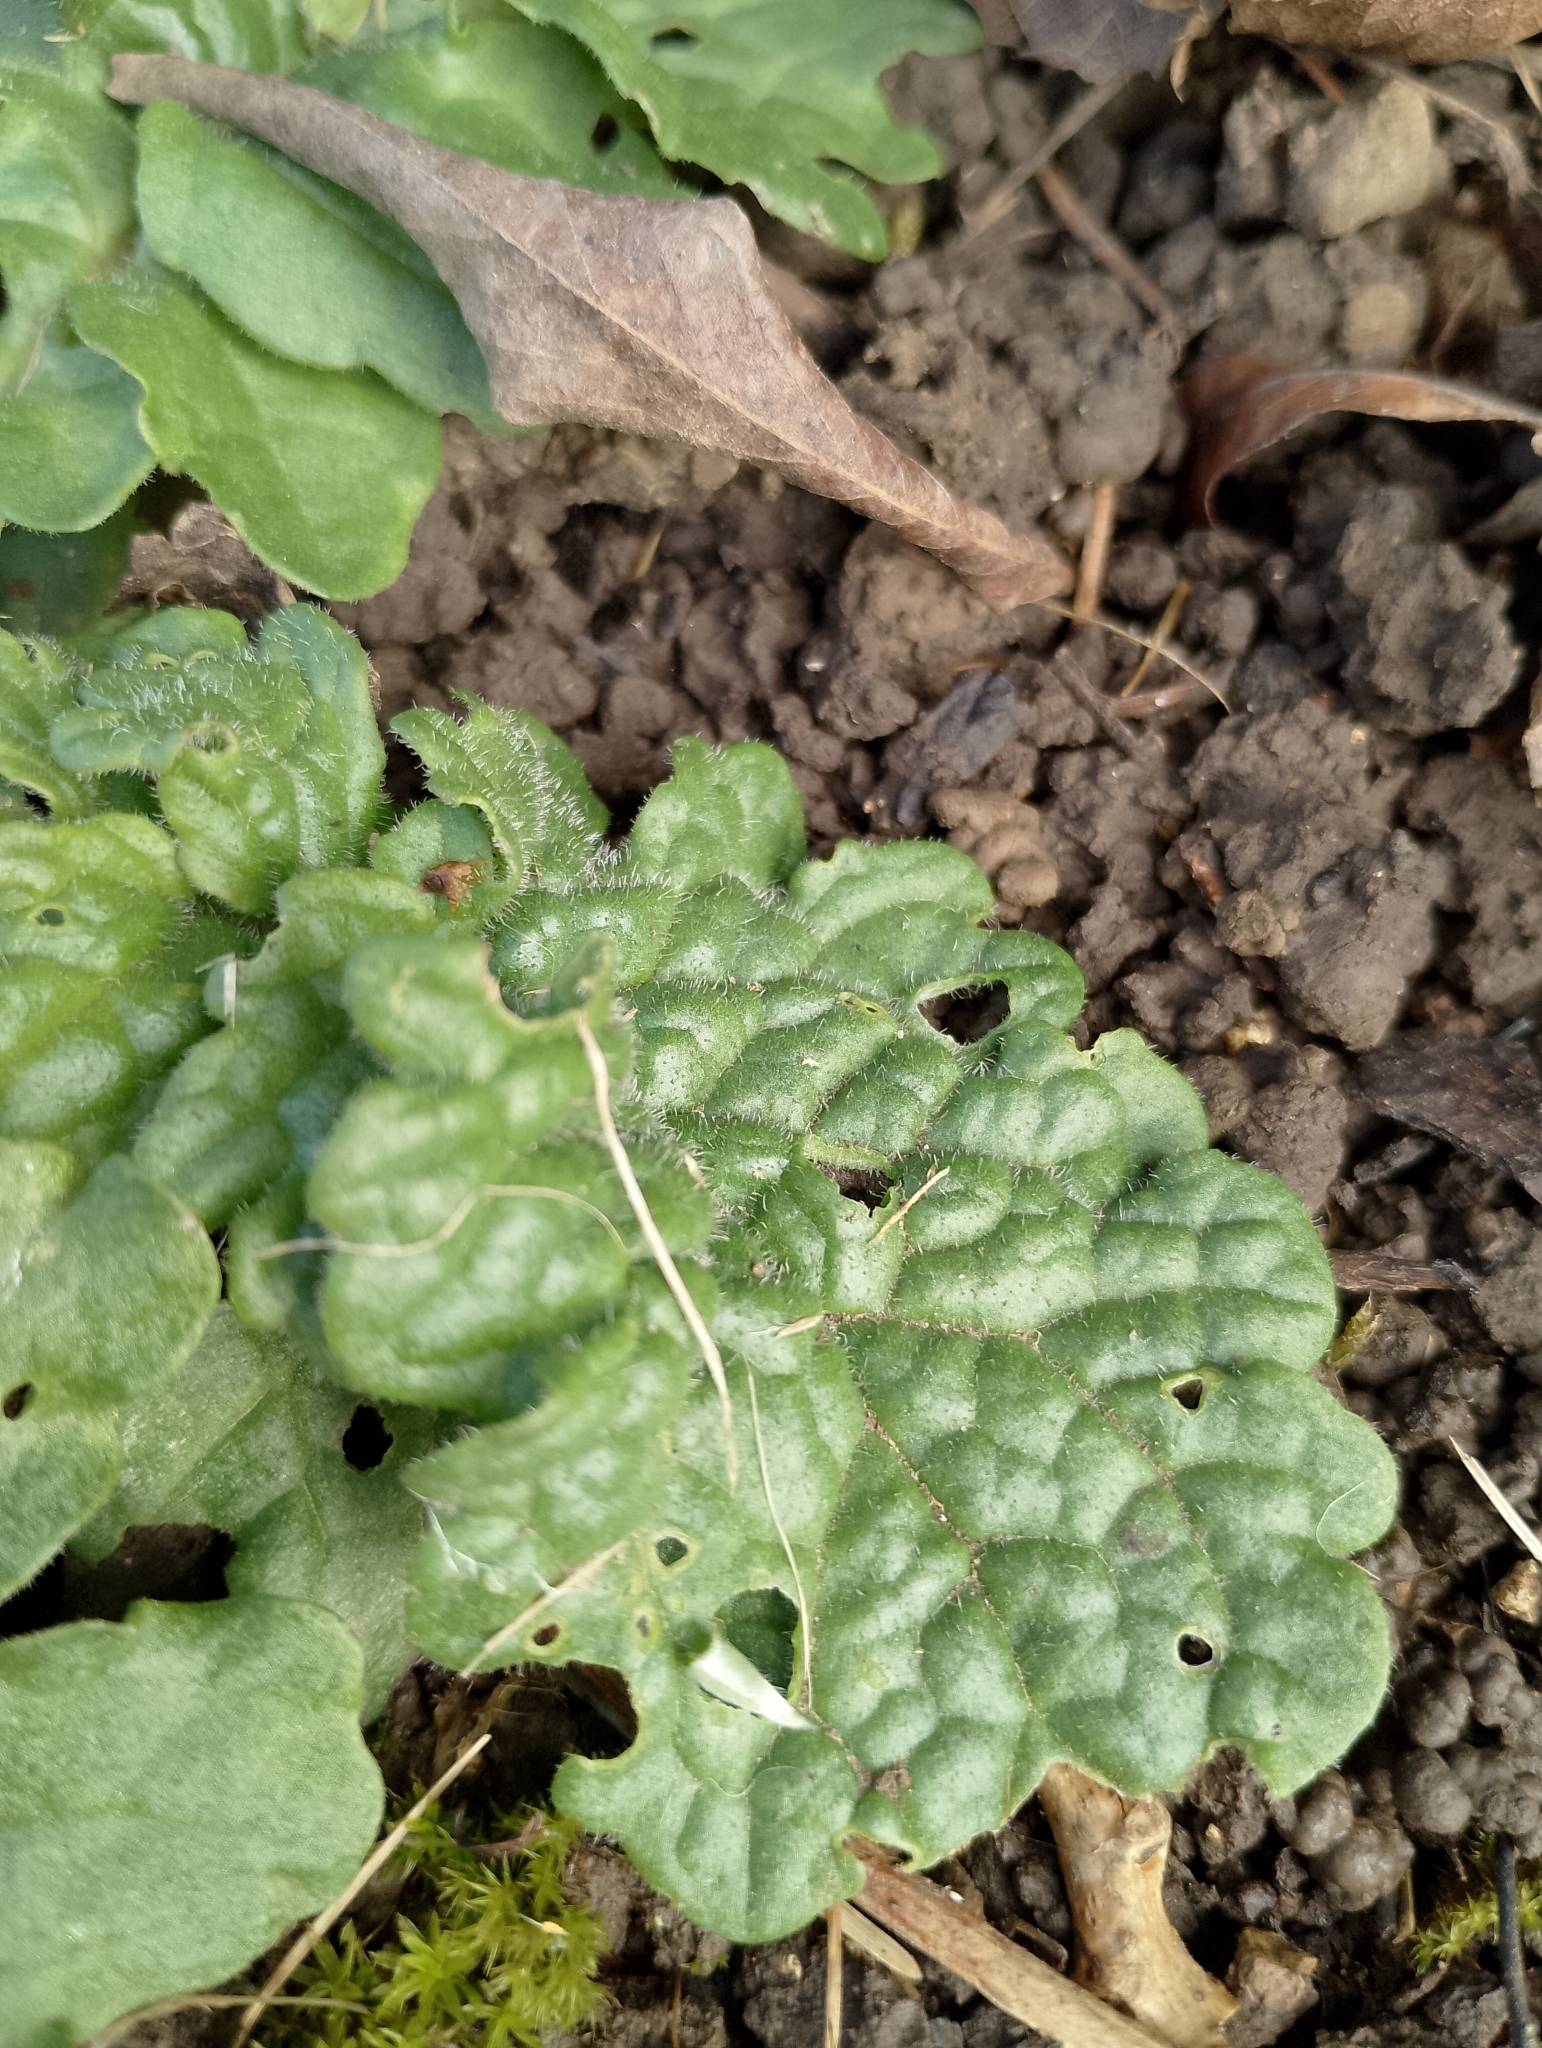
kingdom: Plantae
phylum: Tracheophyta
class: Magnoliopsida
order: Asterales
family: Asteraceae
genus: Jacobaea
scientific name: Jacobaea vulgaris
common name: Stinking willie
